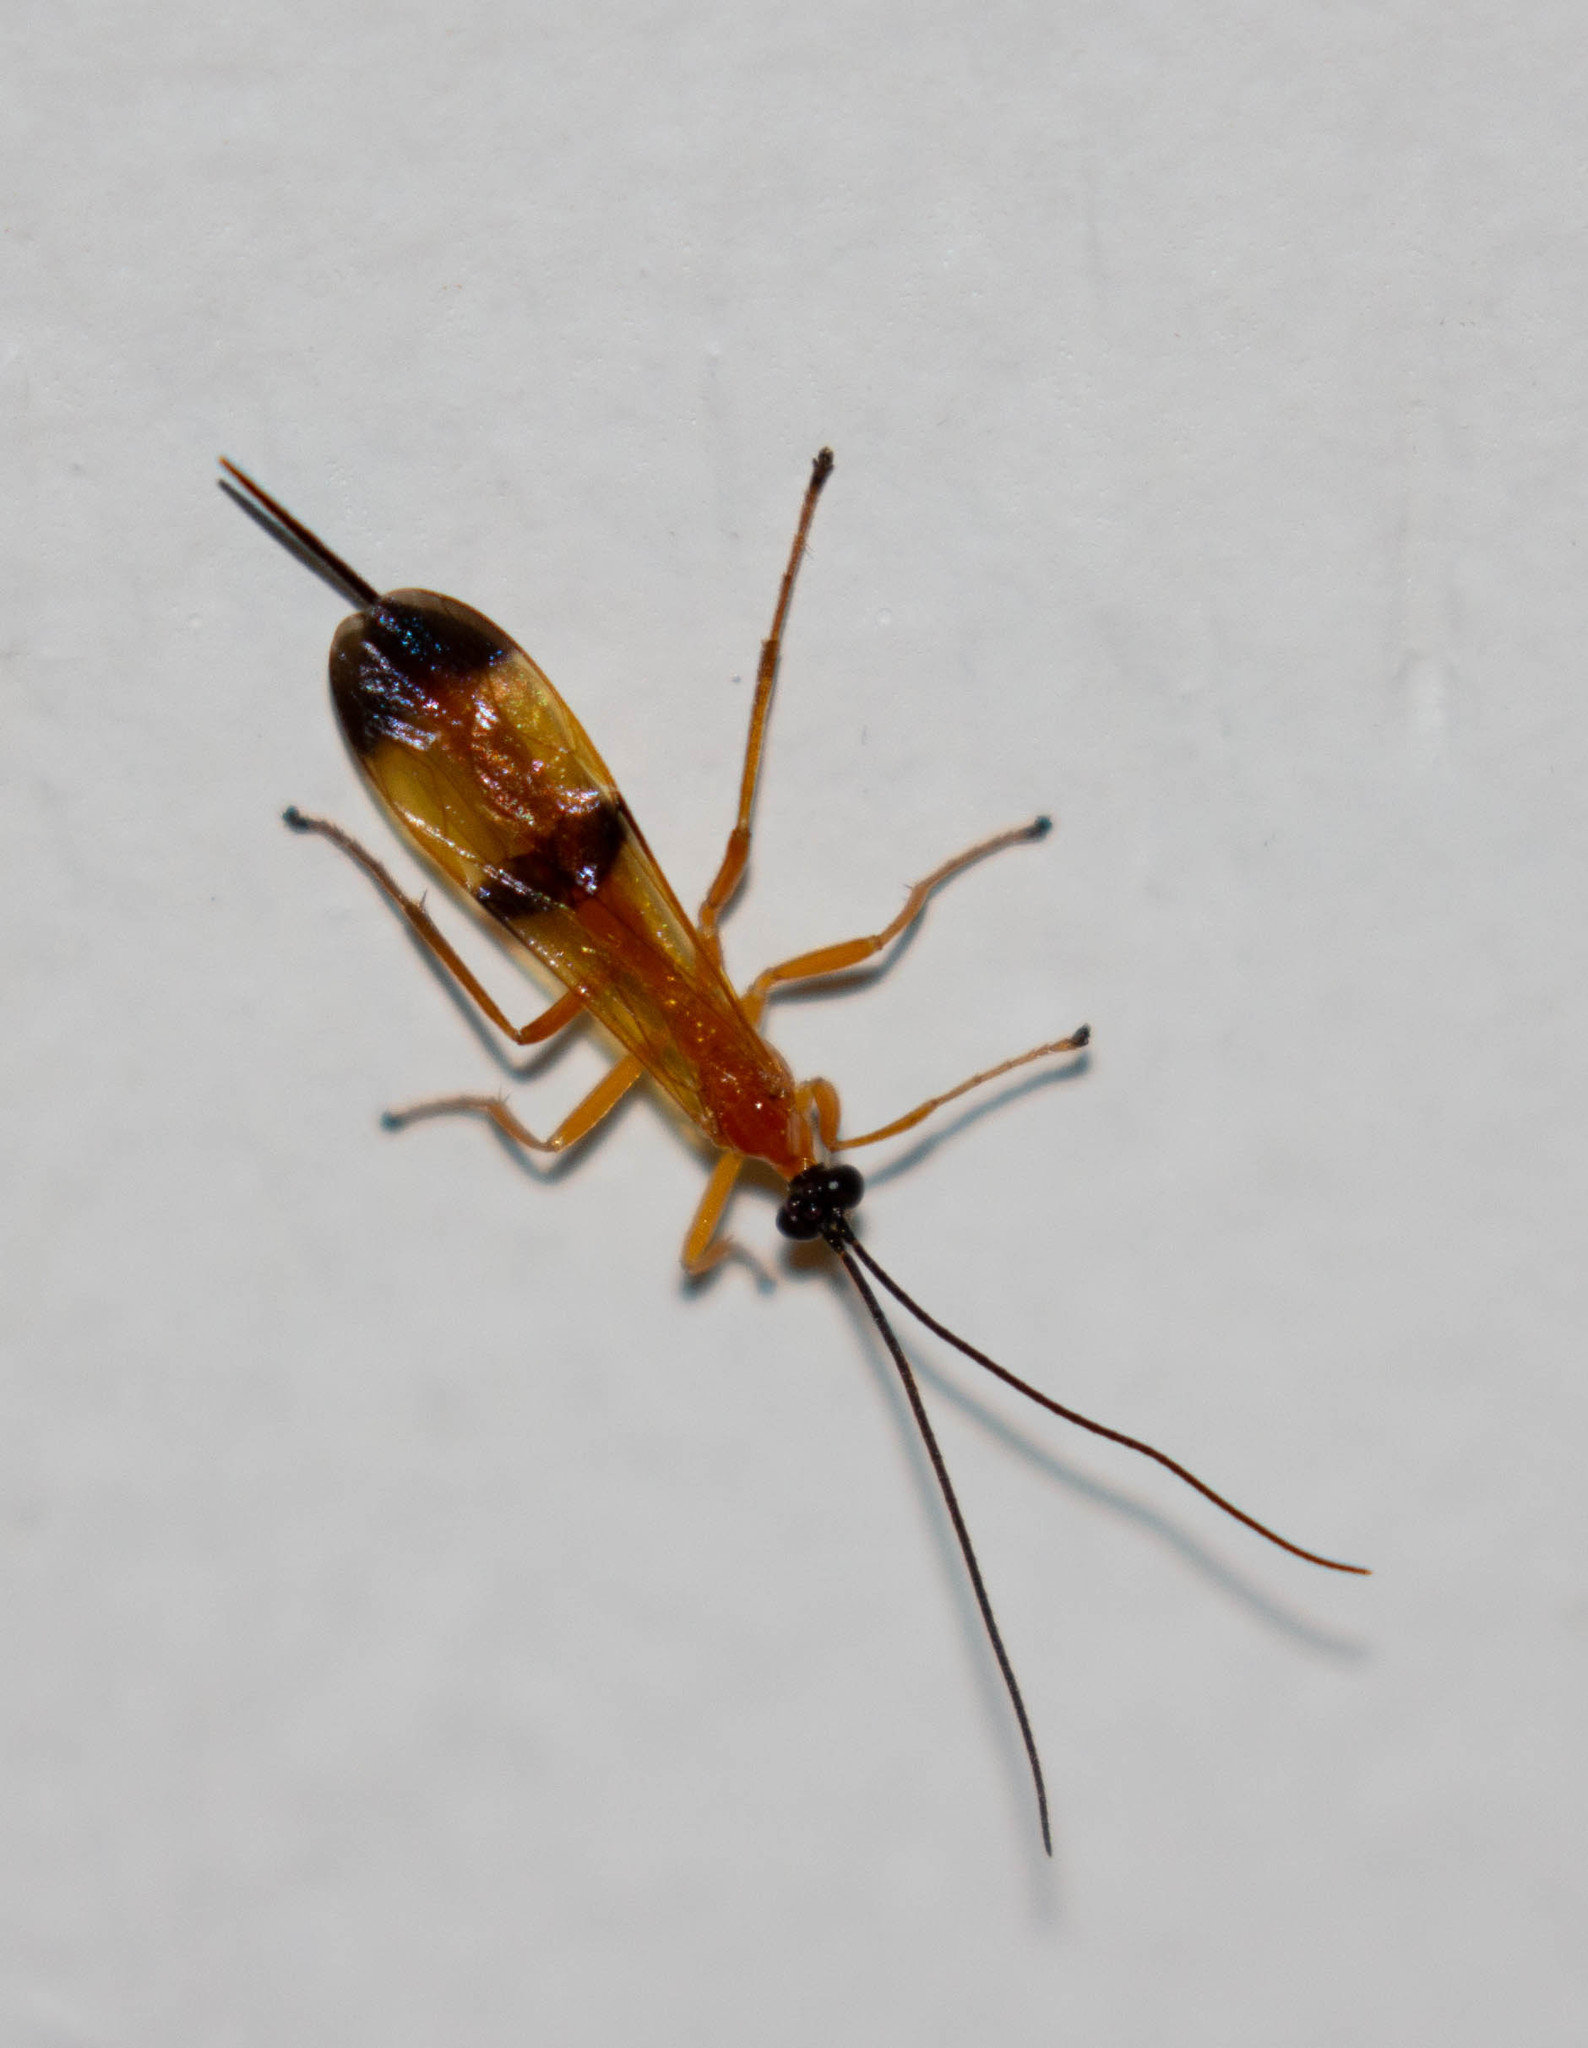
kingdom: Animalia
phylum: Arthropoda
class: Insecta
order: Hymenoptera
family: Ichneumonidae
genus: Acrotaphus
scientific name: Acrotaphus wiltii
